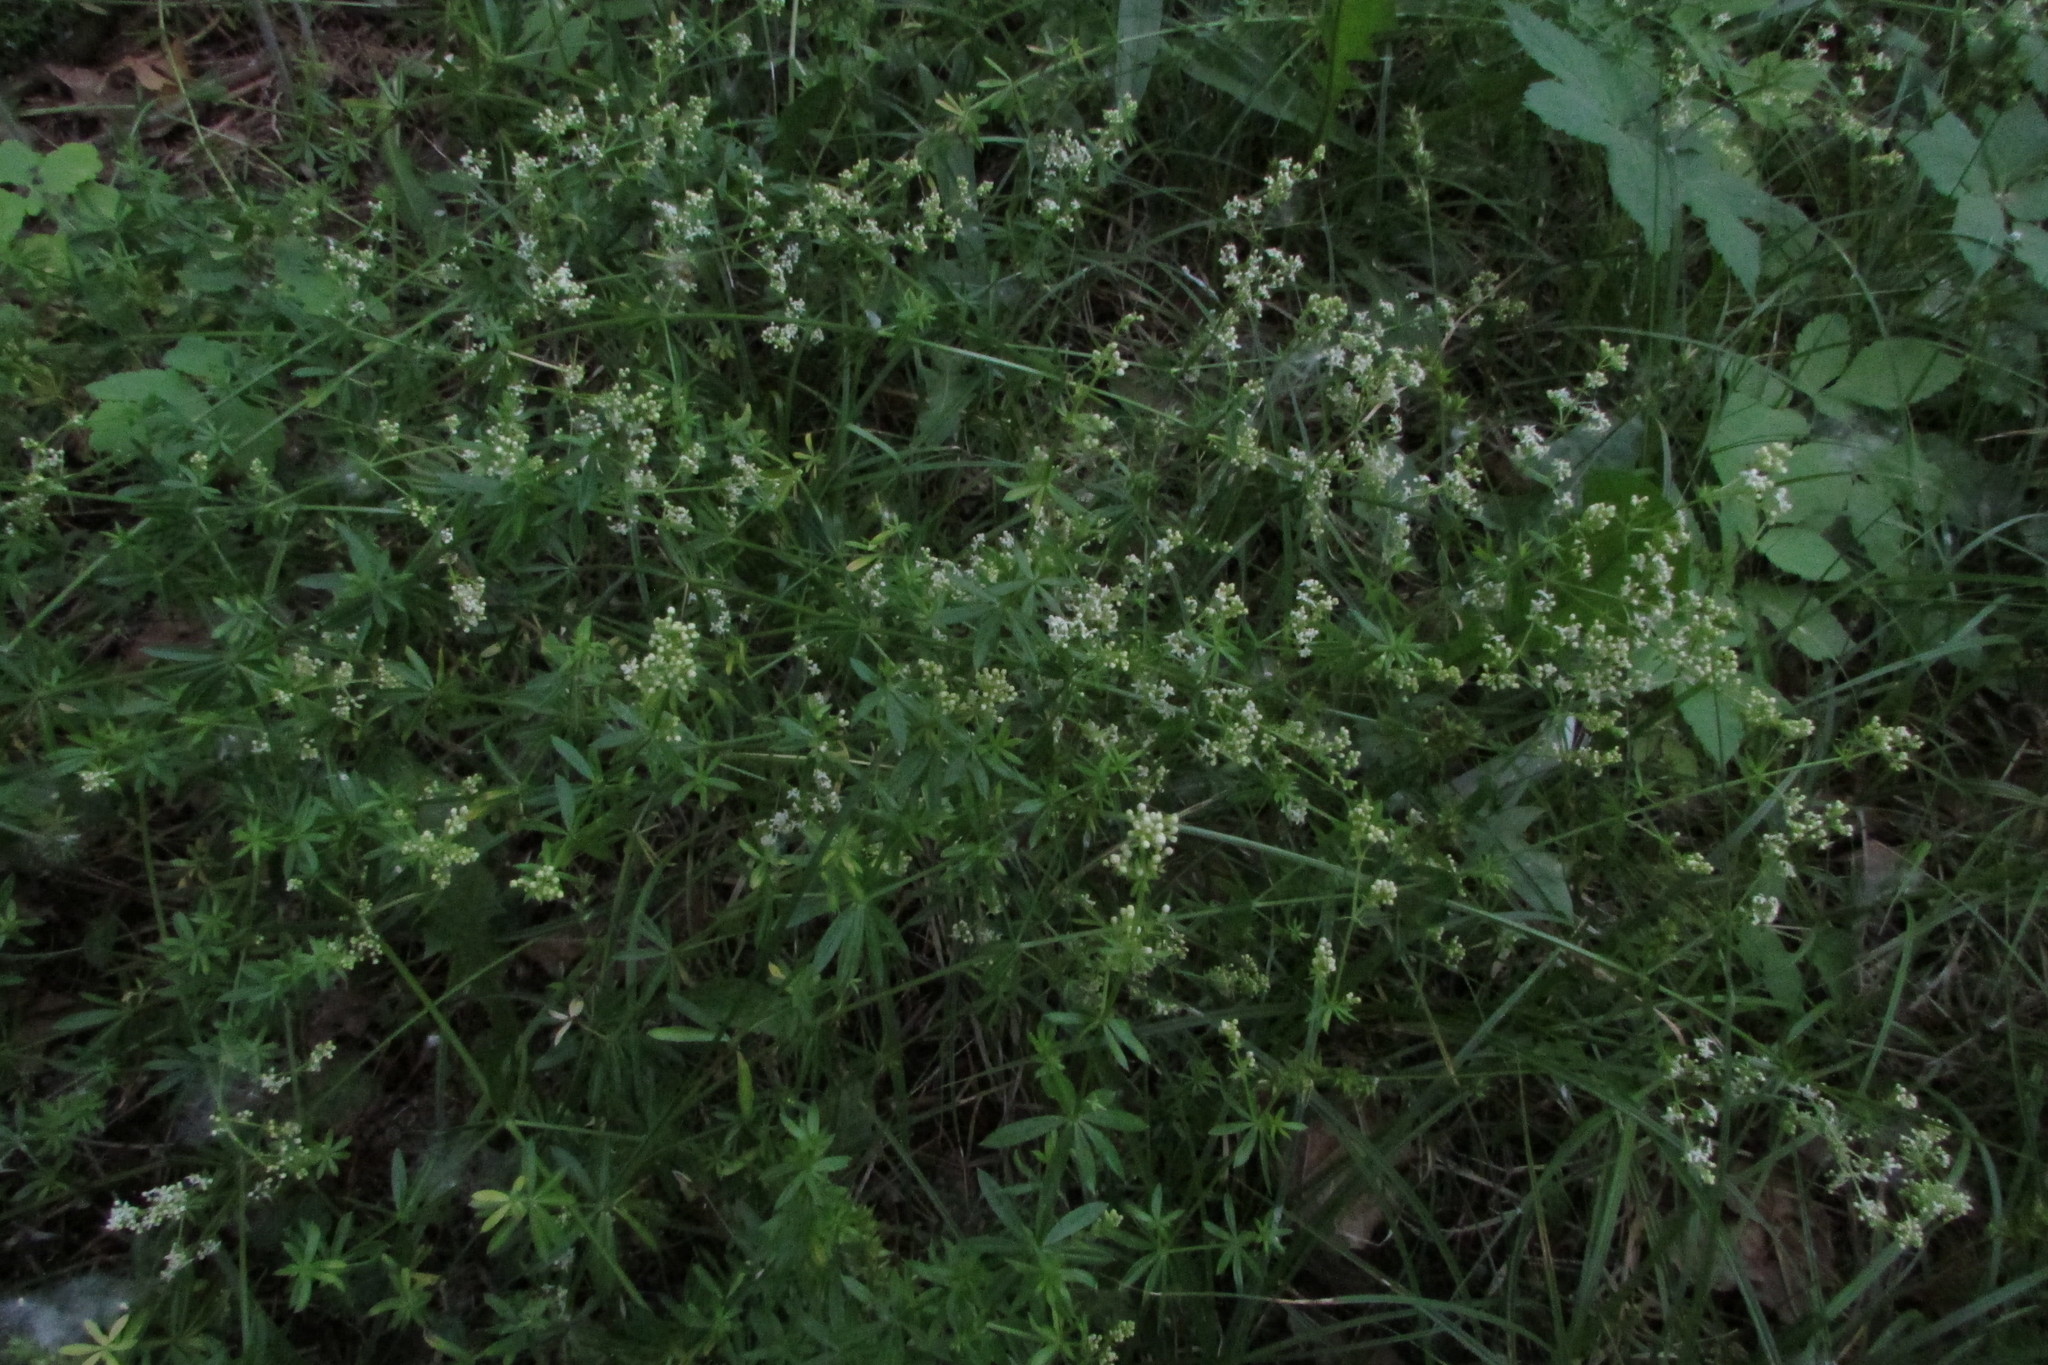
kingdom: Plantae
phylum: Tracheophyta
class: Magnoliopsida
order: Gentianales
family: Rubiaceae
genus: Galium
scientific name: Galium mollugo
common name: Hedge bedstraw
